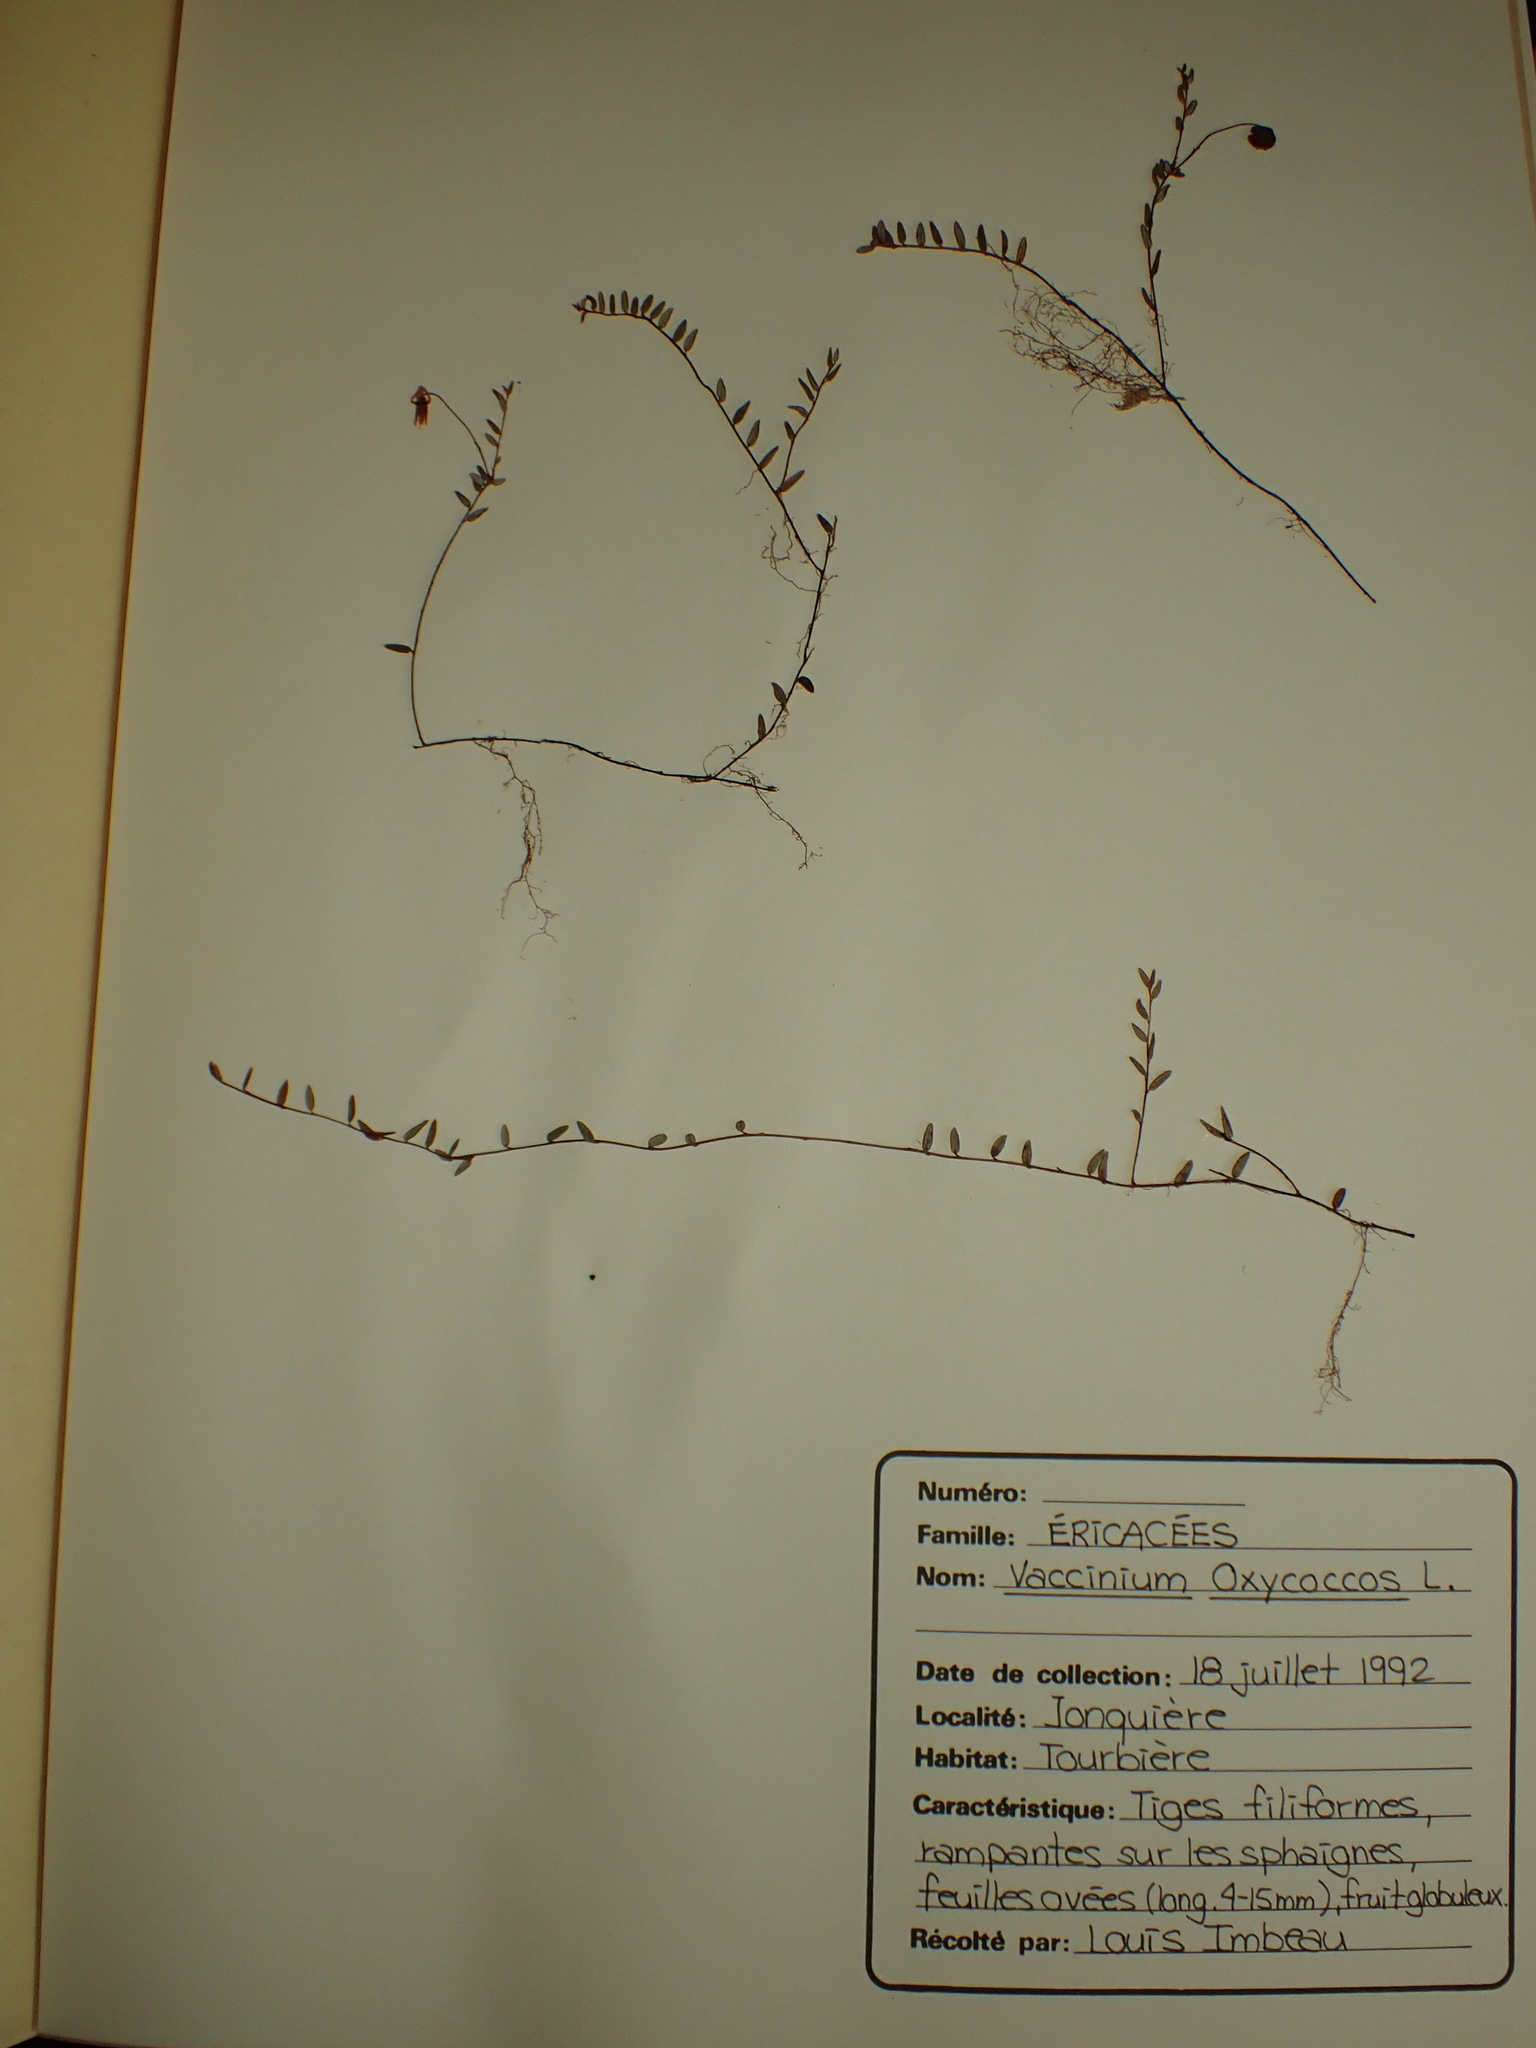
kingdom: Plantae
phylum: Tracheophyta
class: Magnoliopsida
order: Ericales
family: Ericaceae
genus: Vaccinium
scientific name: Vaccinium oxycoccos
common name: Cranberry
